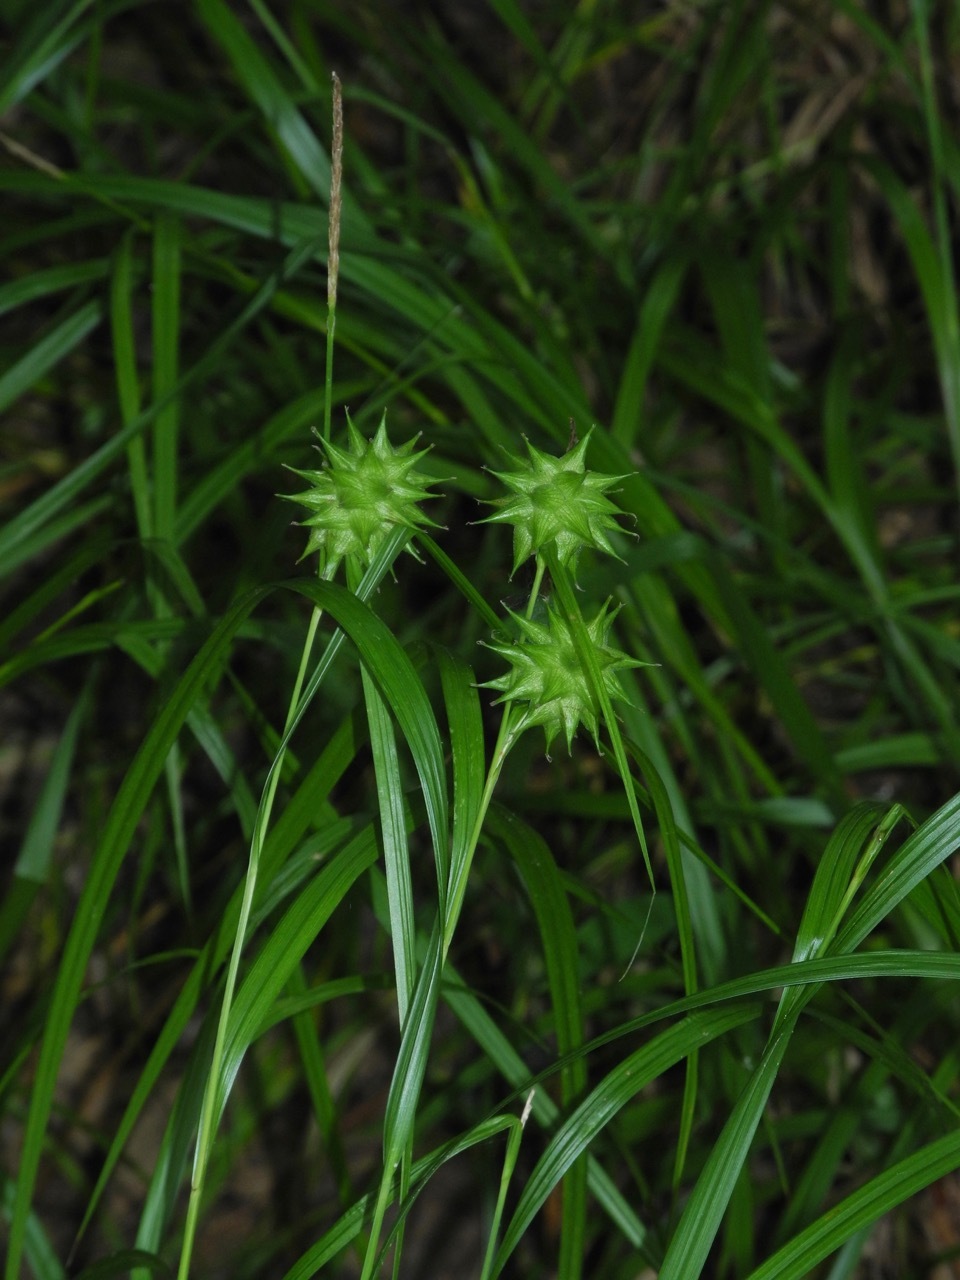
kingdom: Plantae
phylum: Tracheophyta
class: Liliopsida
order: Poales
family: Cyperaceae
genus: Carex
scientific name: Carex grayi
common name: Asa gray's sedge
